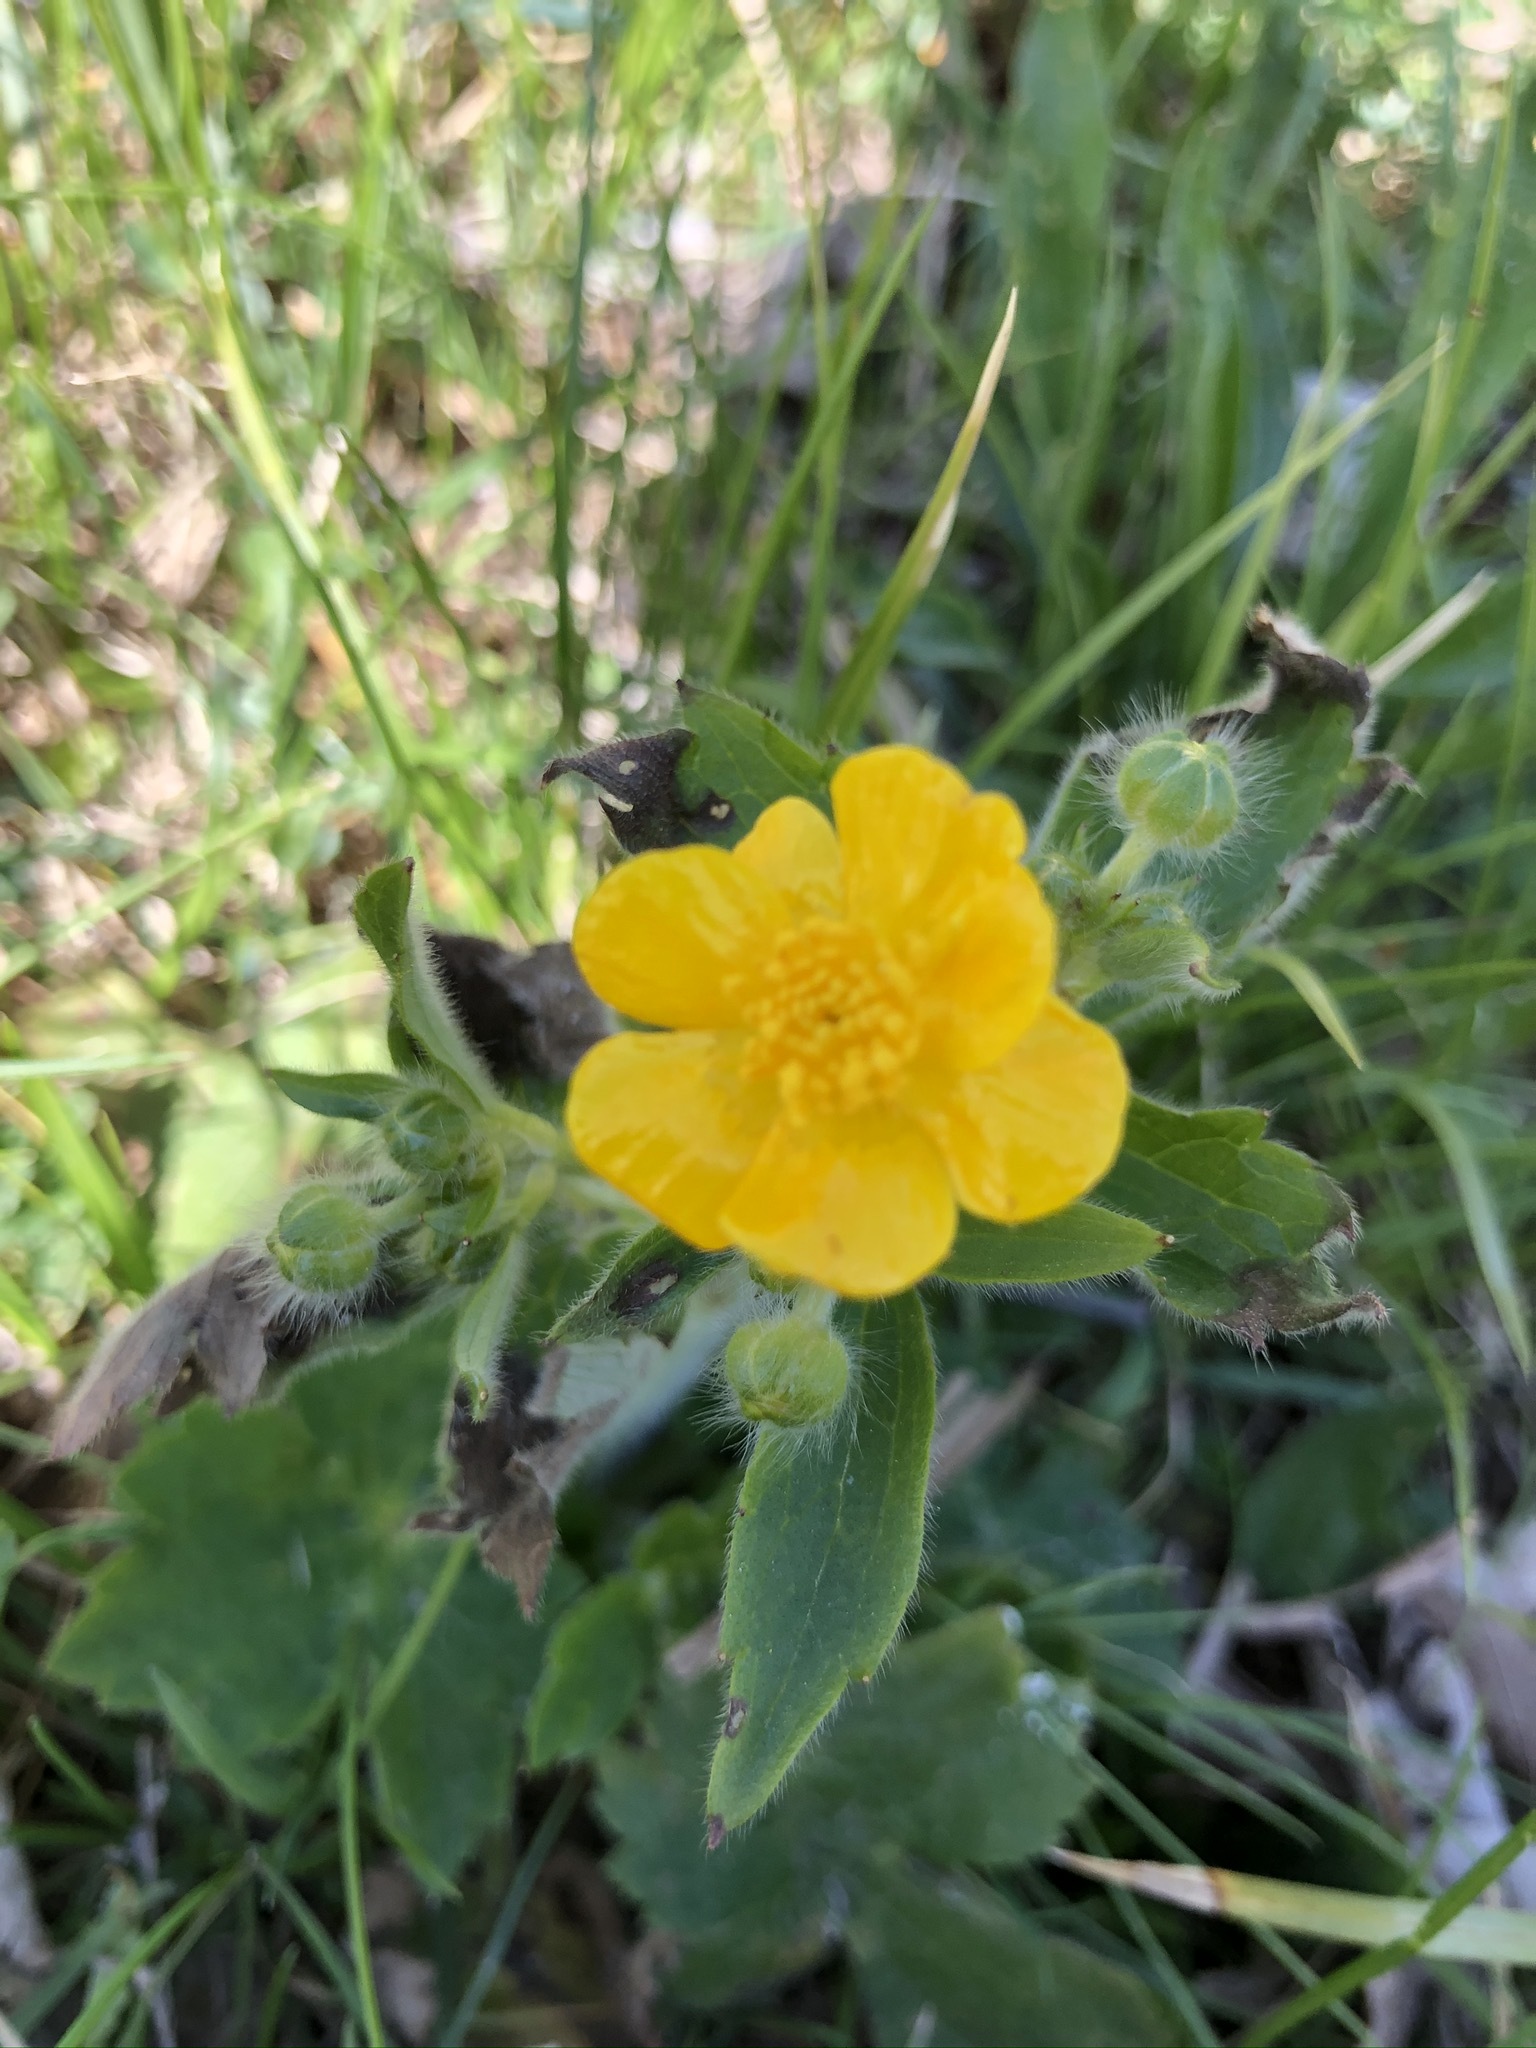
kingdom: Plantae
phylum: Tracheophyta
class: Magnoliopsida
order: Ranunculales
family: Ranunculaceae
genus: Ranunculus
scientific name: Ranunculus lanuginosus
